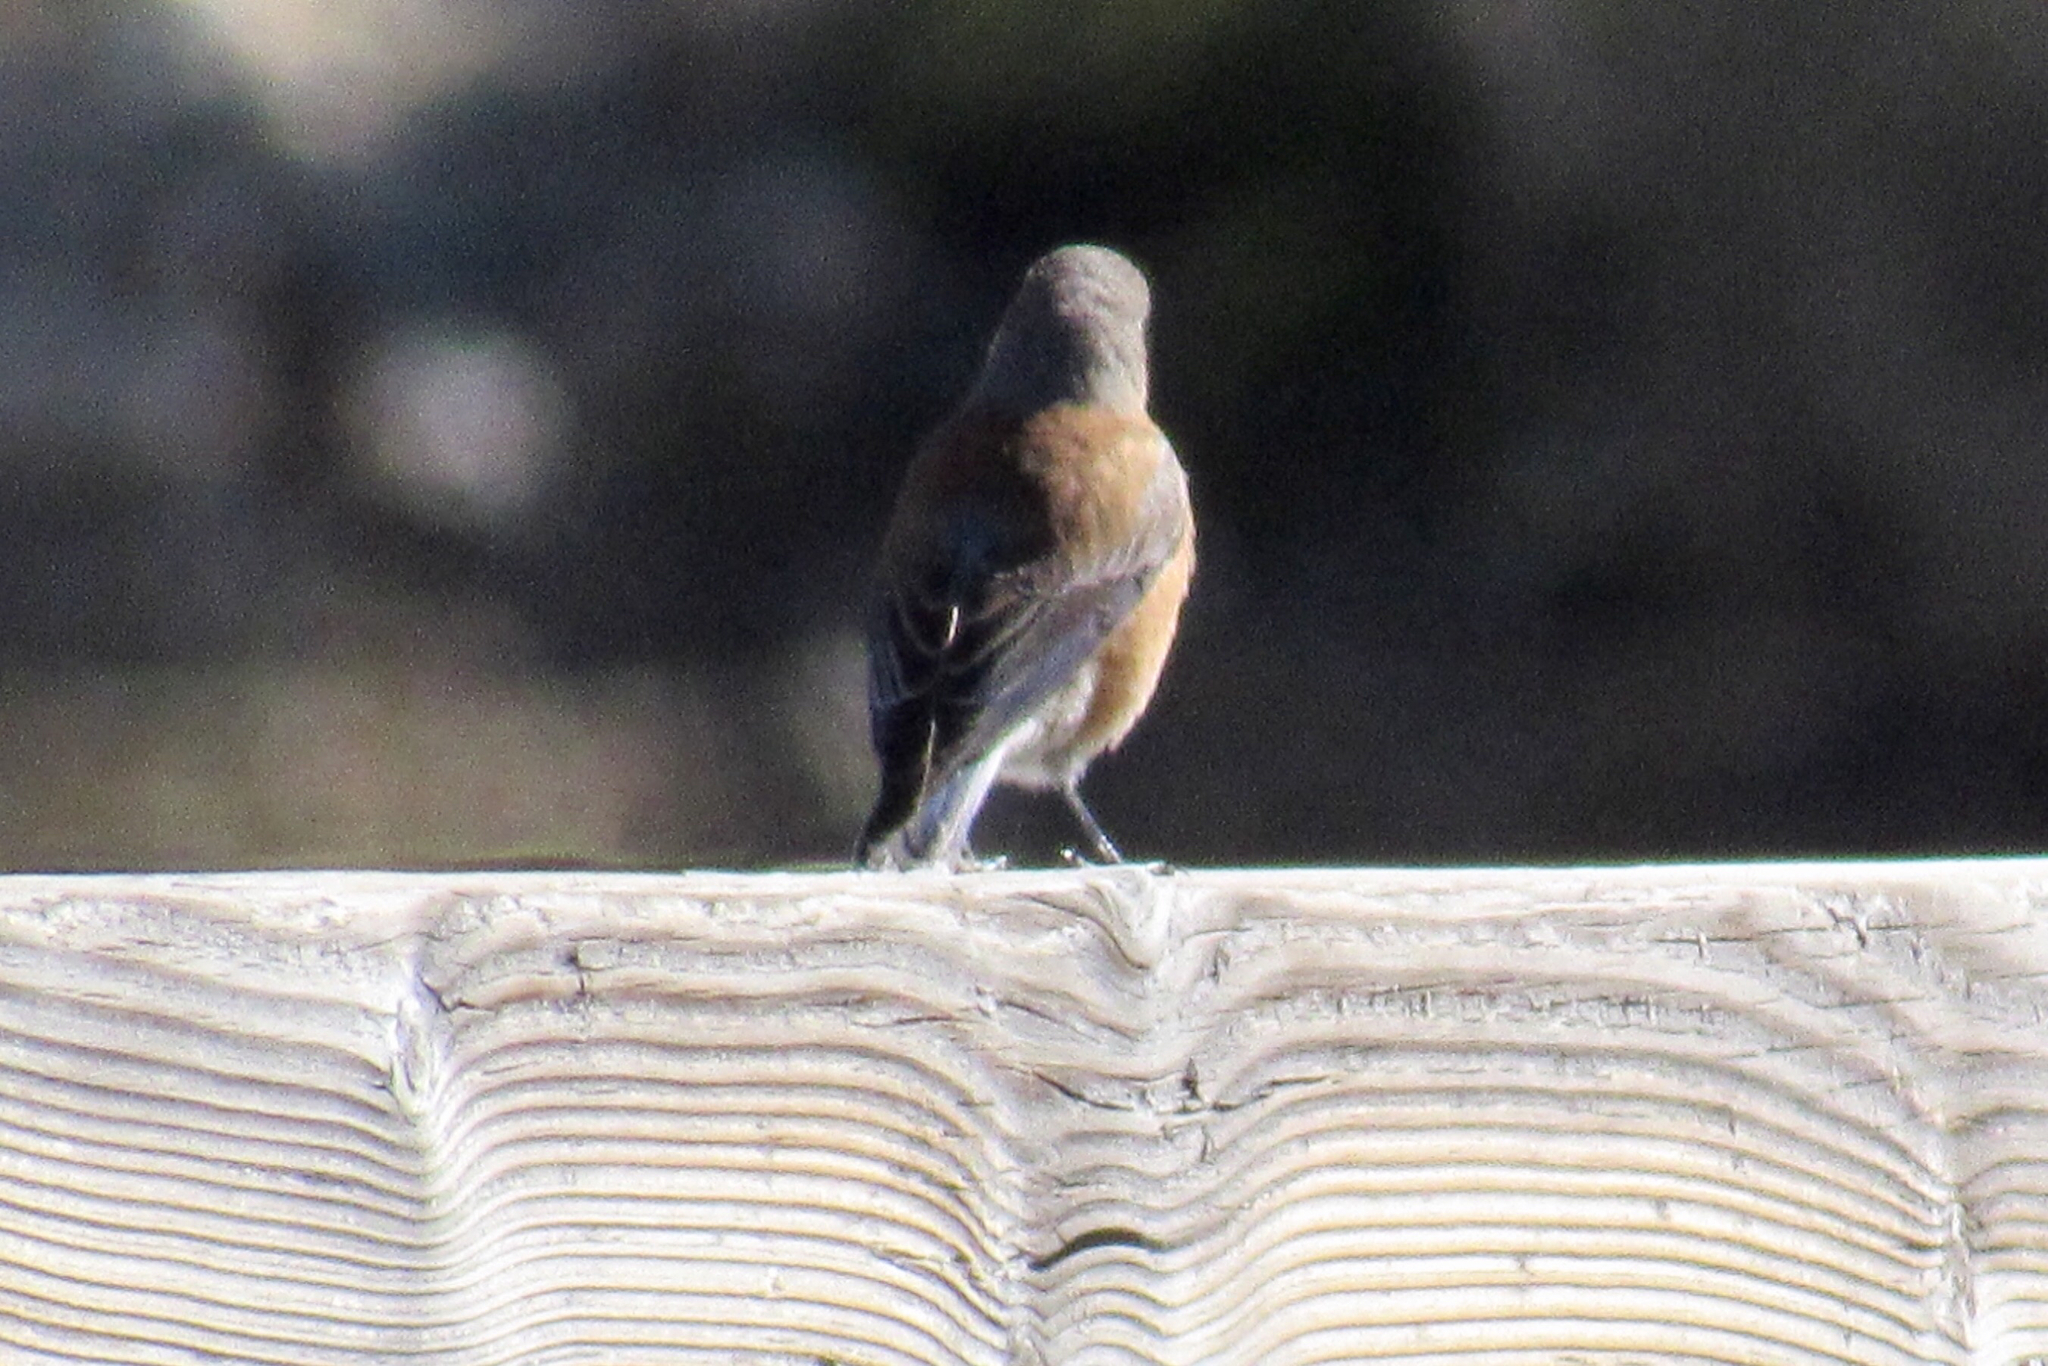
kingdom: Animalia
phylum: Chordata
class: Aves
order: Passeriformes
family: Turdidae
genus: Sialia
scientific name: Sialia mexicana
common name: Western bluebird
